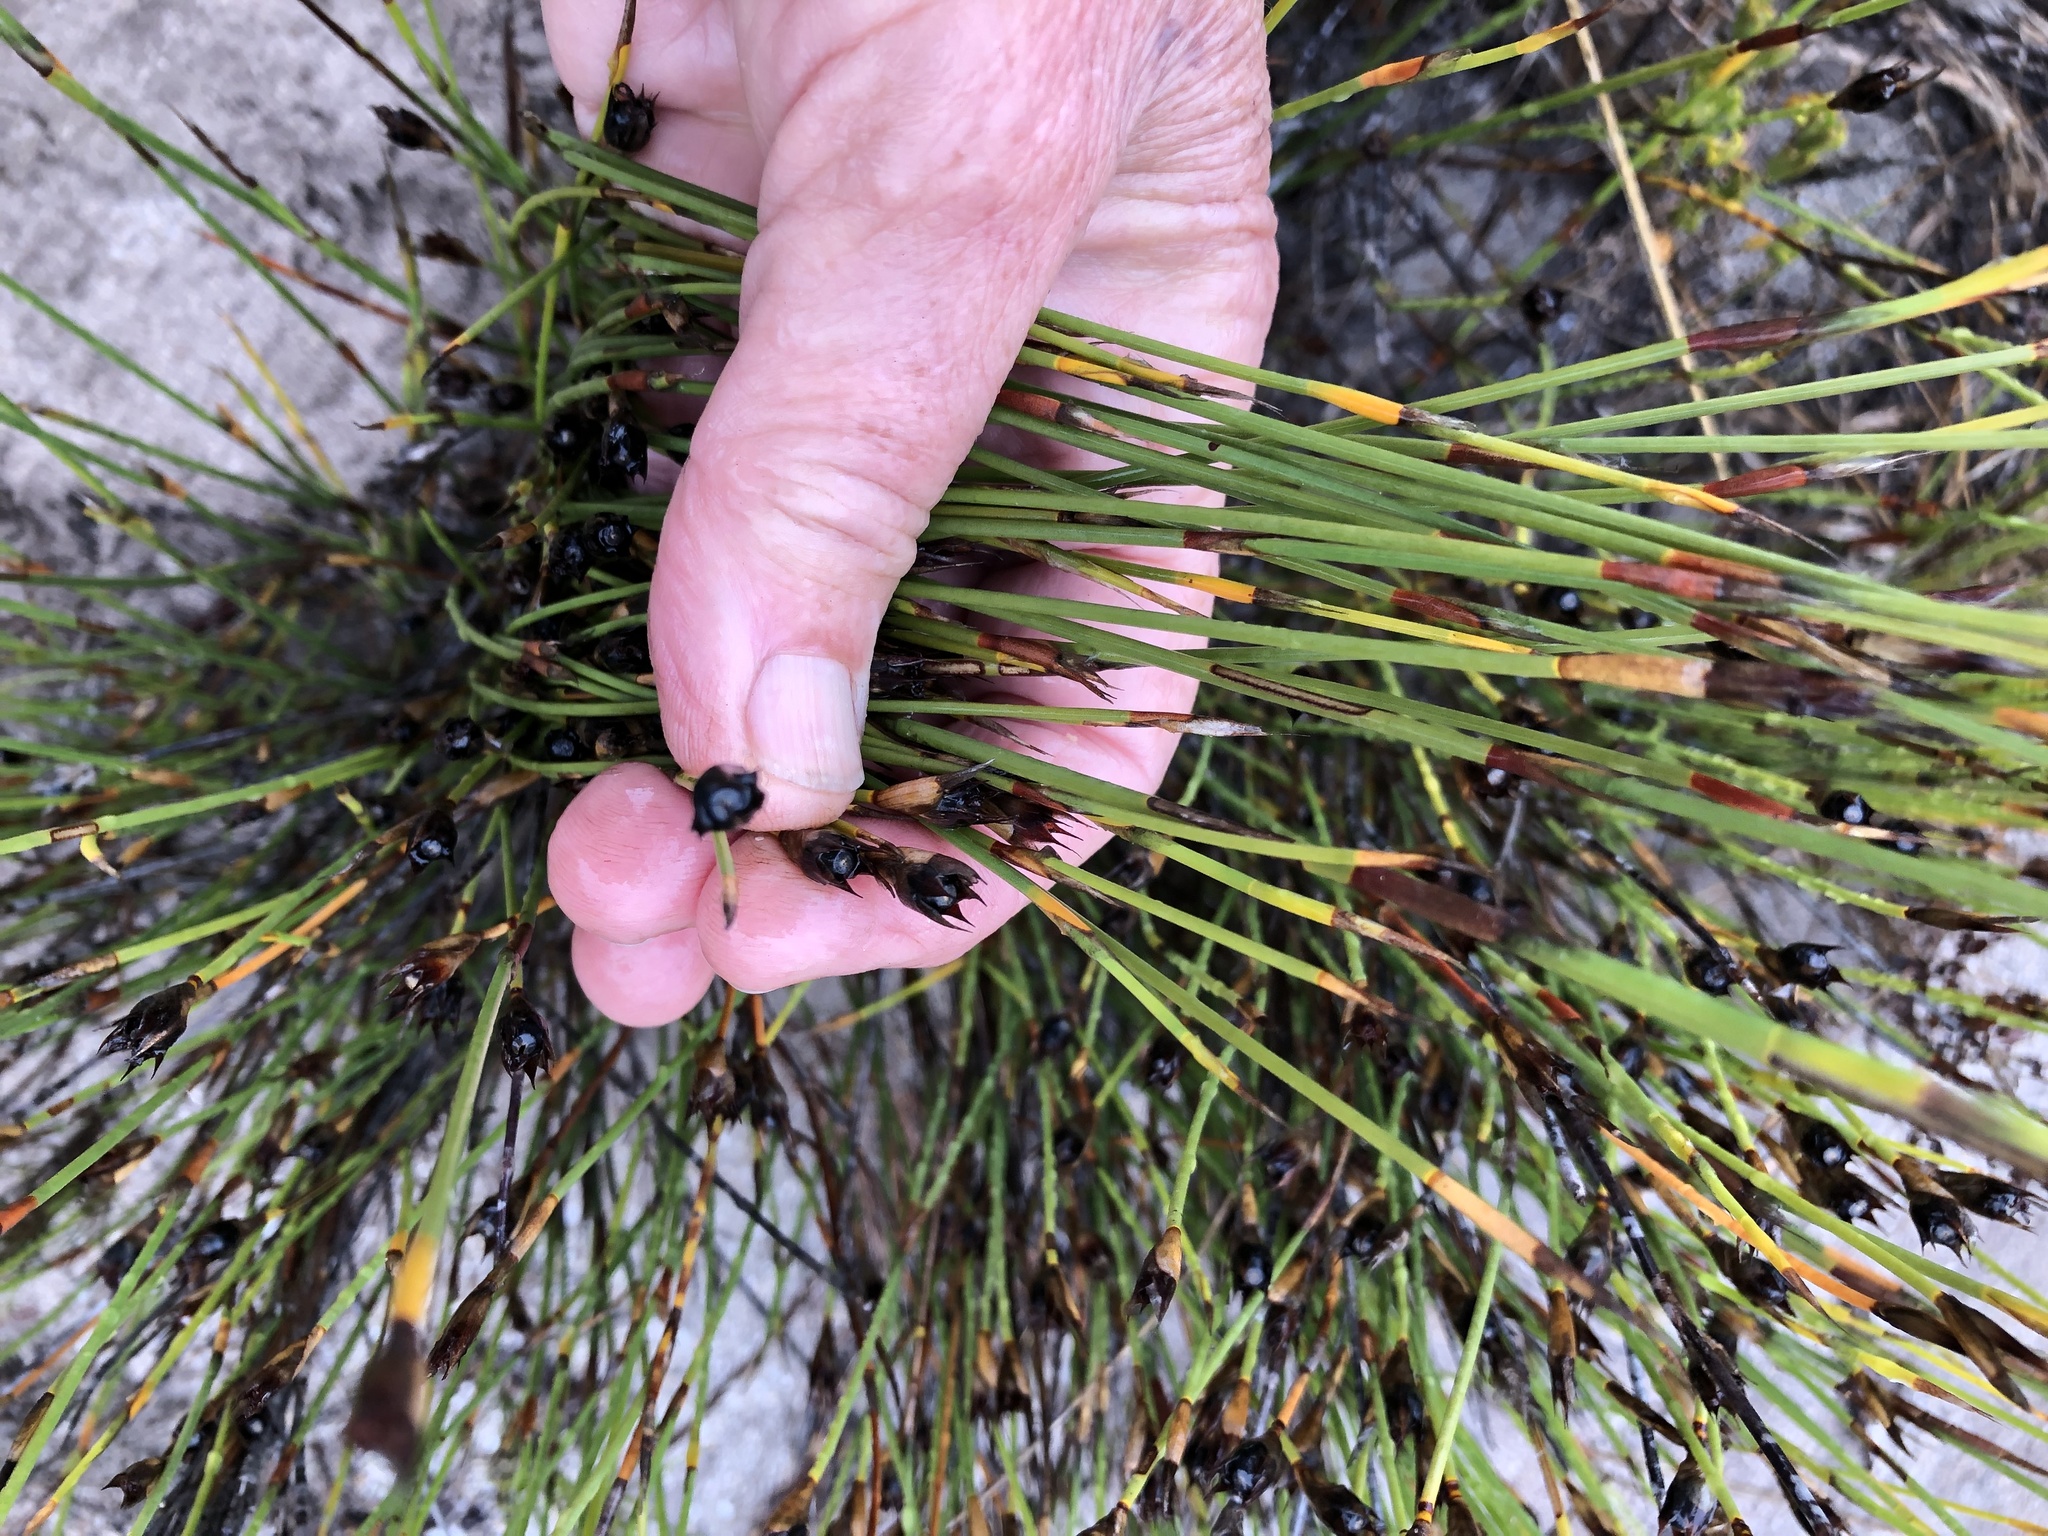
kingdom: Plantae
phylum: Tracheophyta
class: Liliopsida
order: Poales
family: Restionaceae
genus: Willdenowia
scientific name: Willdenowia teres
